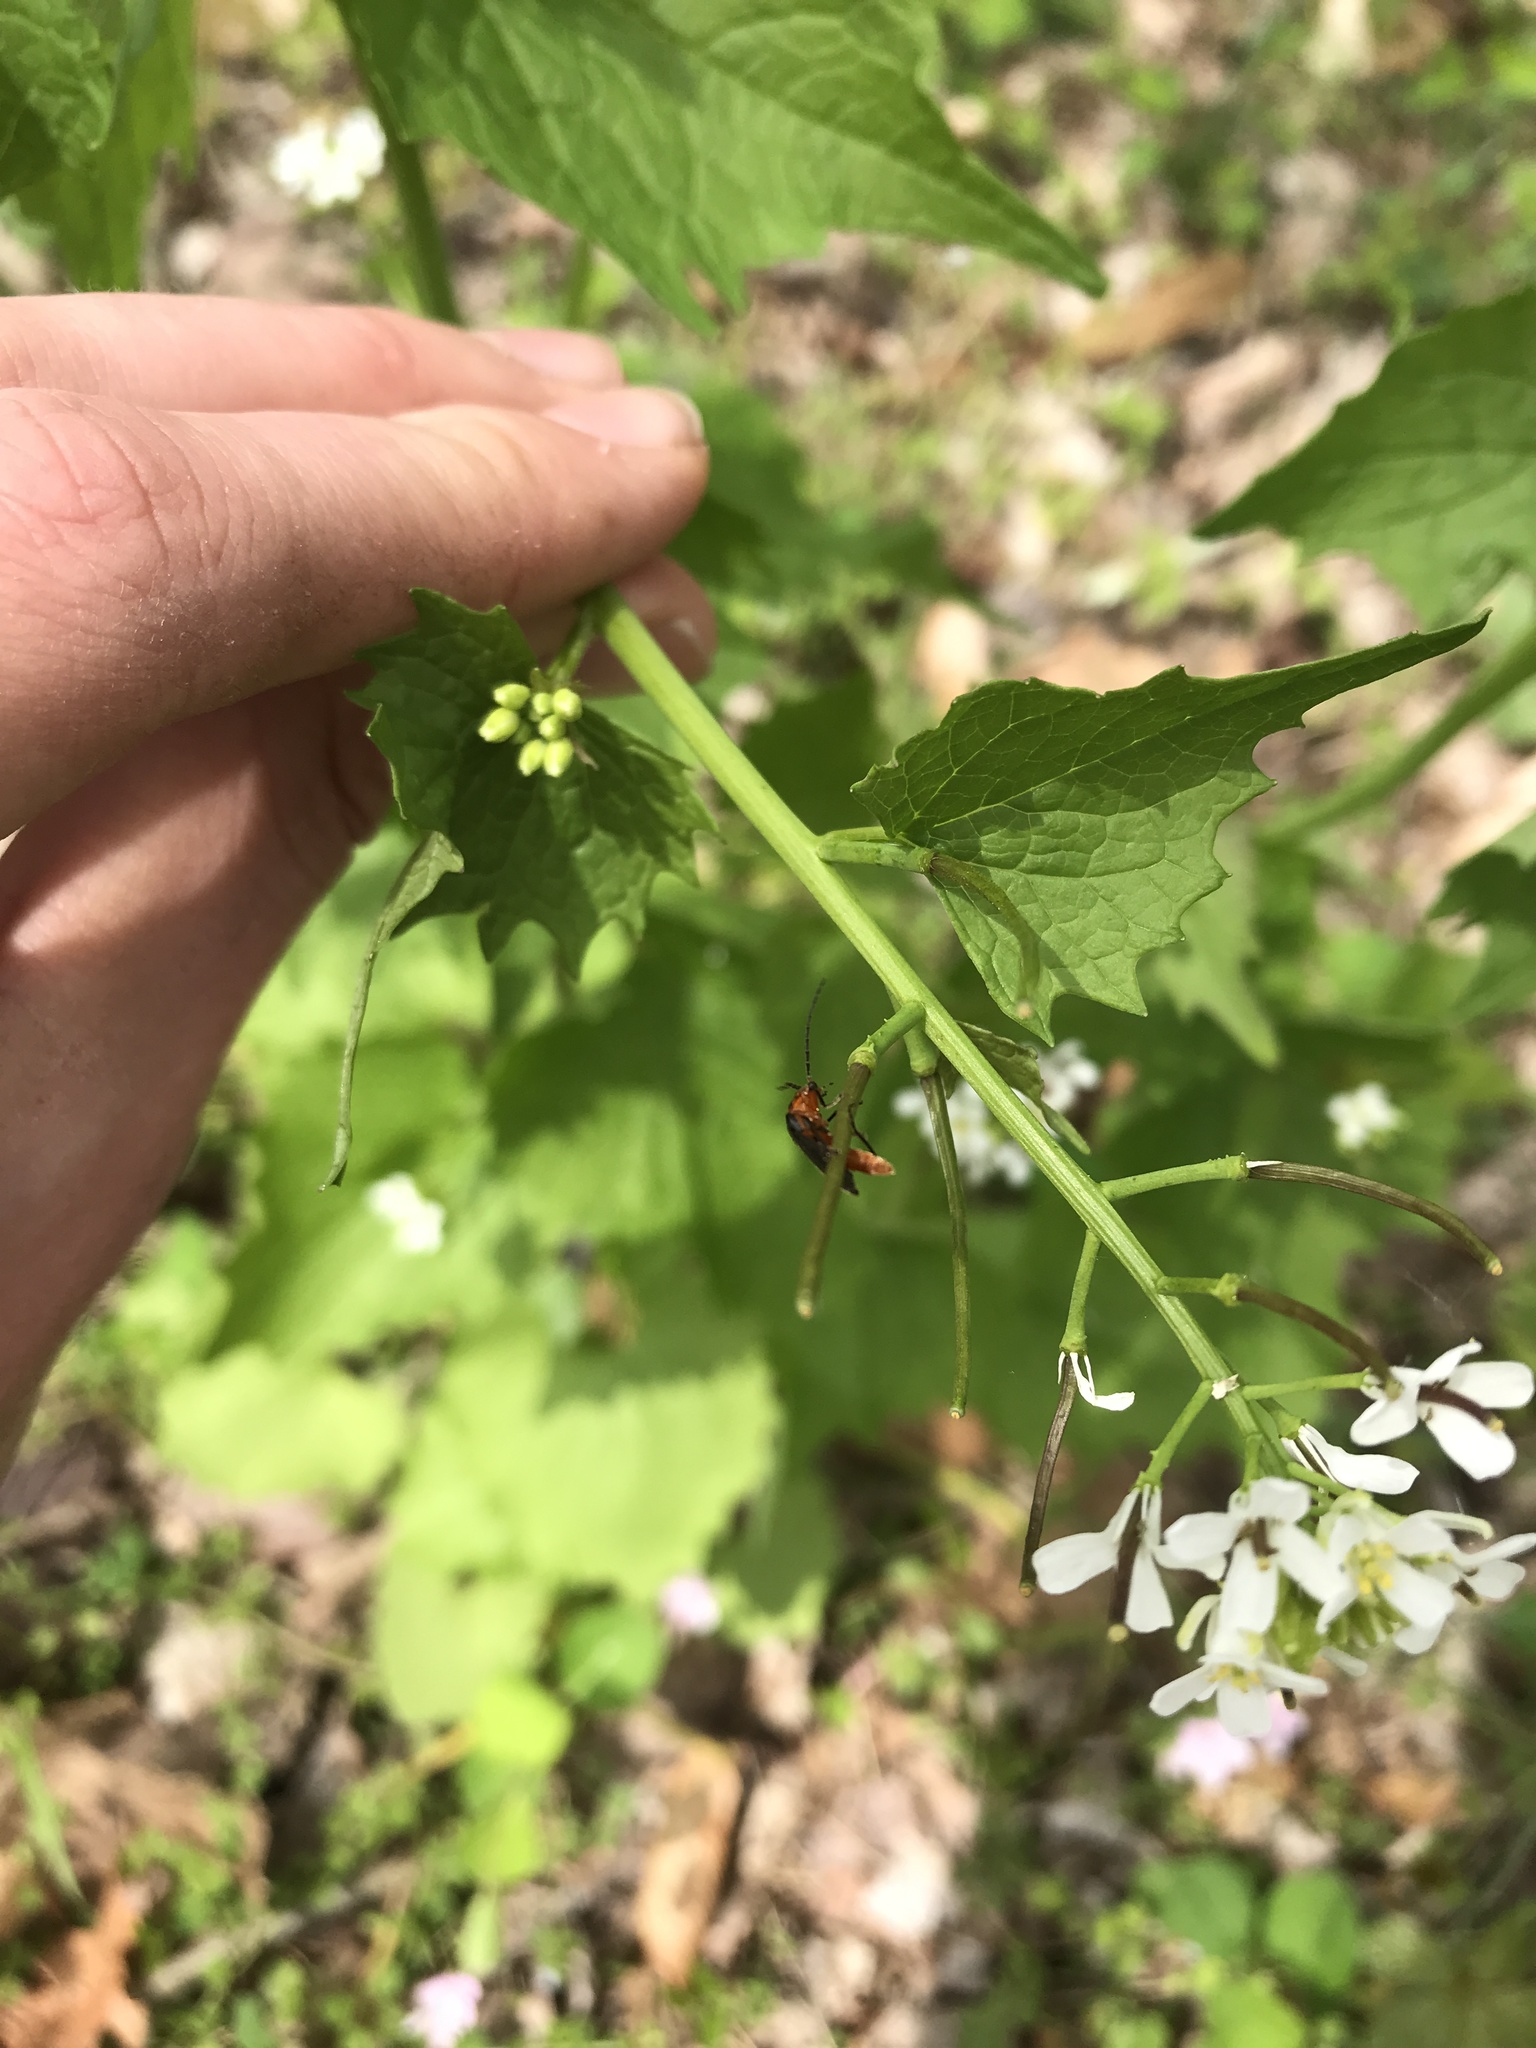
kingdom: Animalia
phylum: Arthropoda
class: Insecta
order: Coleoptera
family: Cantharidae
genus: Atalantycha
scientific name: Atalantycha bilineata
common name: Two-lined leatherwing
